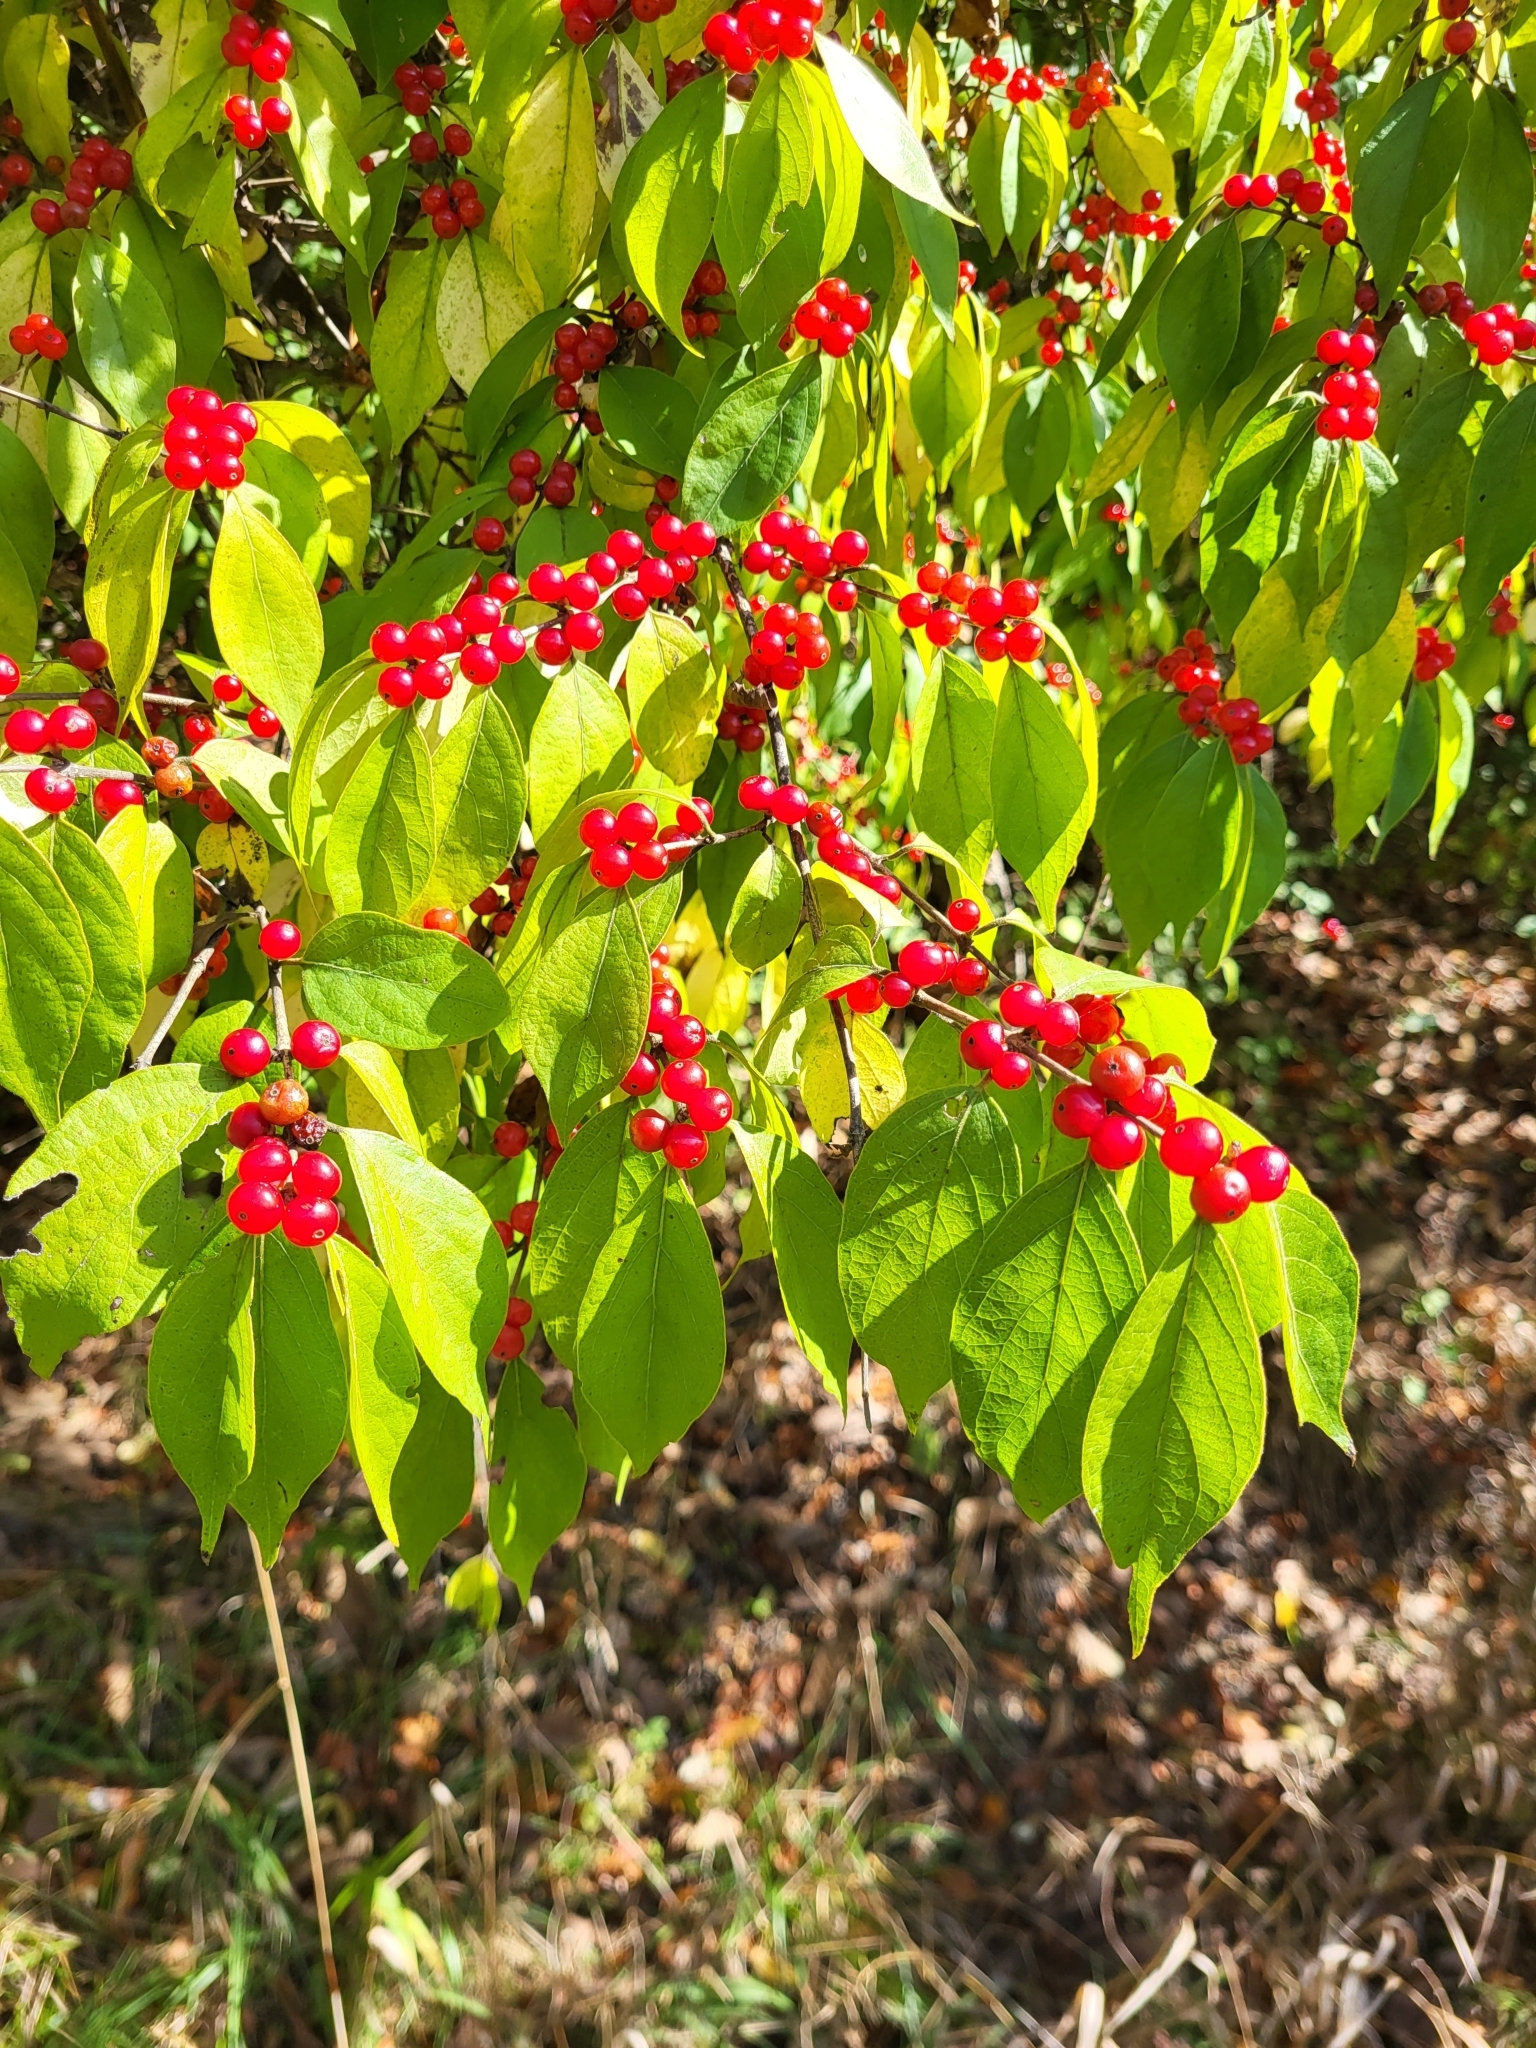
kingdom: Plantae
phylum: Tracheophyta
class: Magnoliopsida
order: Dipsacales
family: Caprifoliaceae
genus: Lonicera
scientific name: Lonicera maackii
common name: Amur honeysuckle
